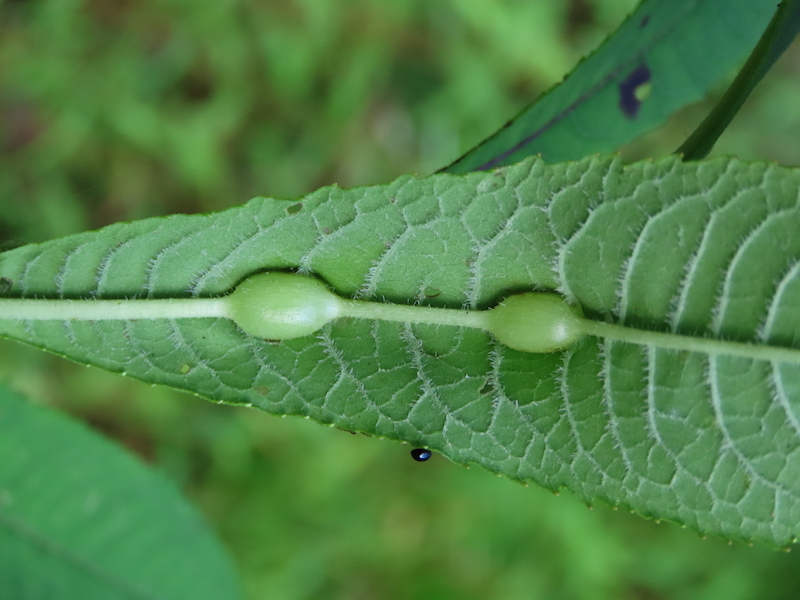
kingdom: Animalia
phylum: Arthropoda
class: Insecta
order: Diptera
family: Cecidomyiidae
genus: Neolasioptera
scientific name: Neolasioptera vernoniae
